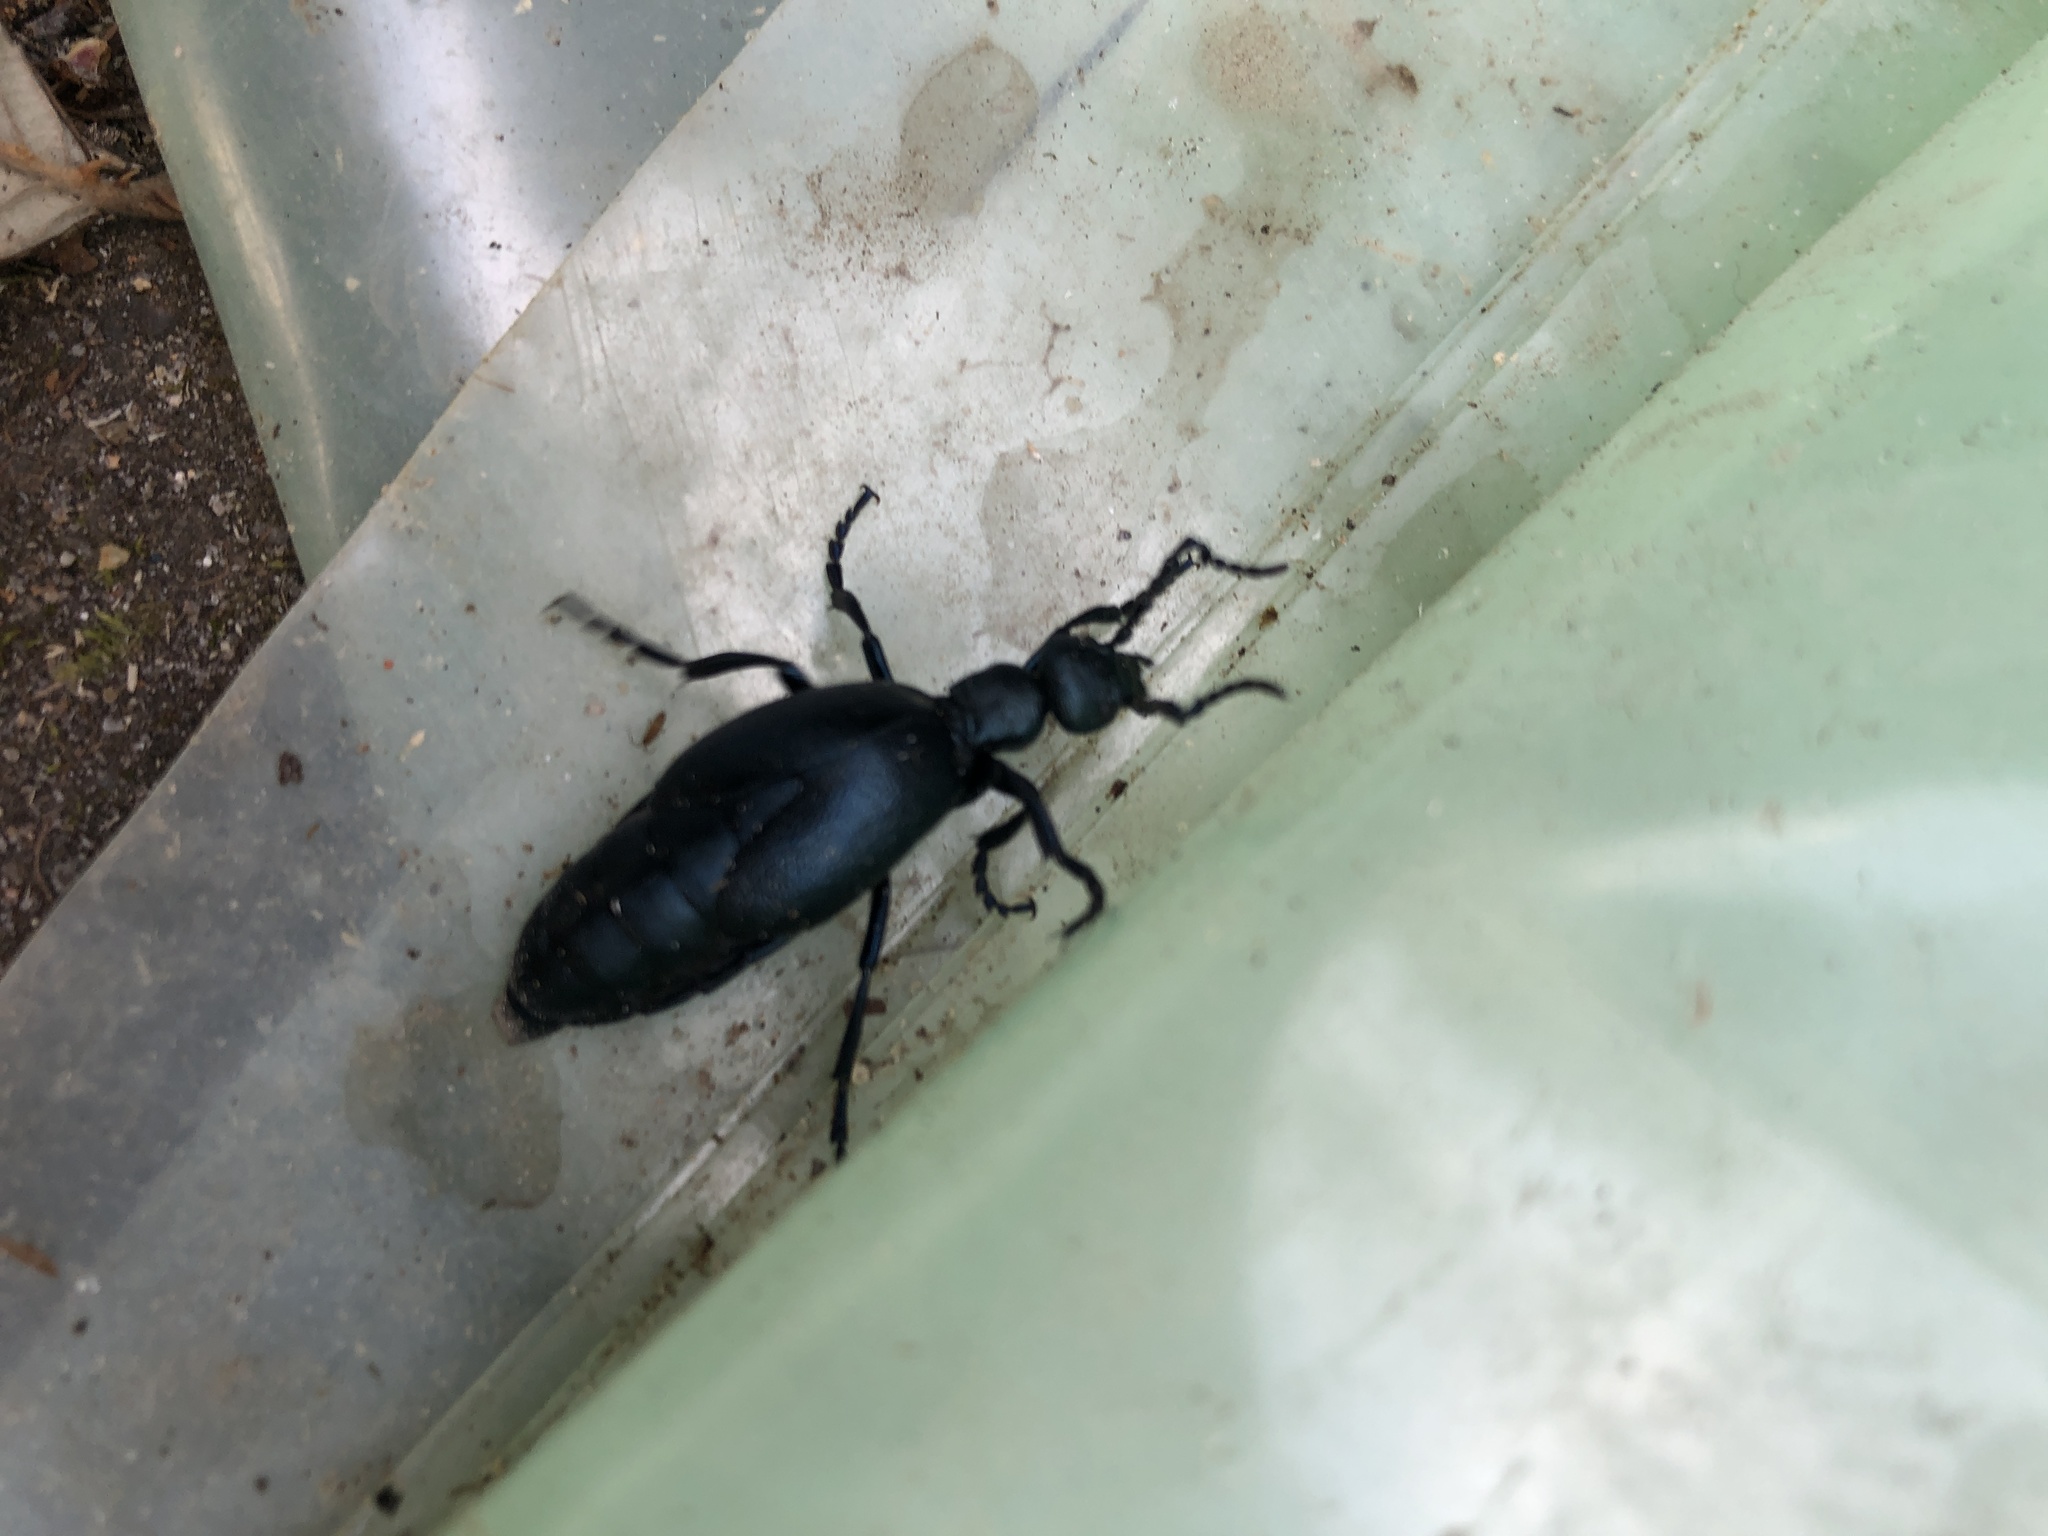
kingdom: Animalia
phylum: Arthropoda
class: Insecta
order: Coleoptera
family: Meloidae
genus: Meloe
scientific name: Meloe violaceus
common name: Violet oil-beetle
